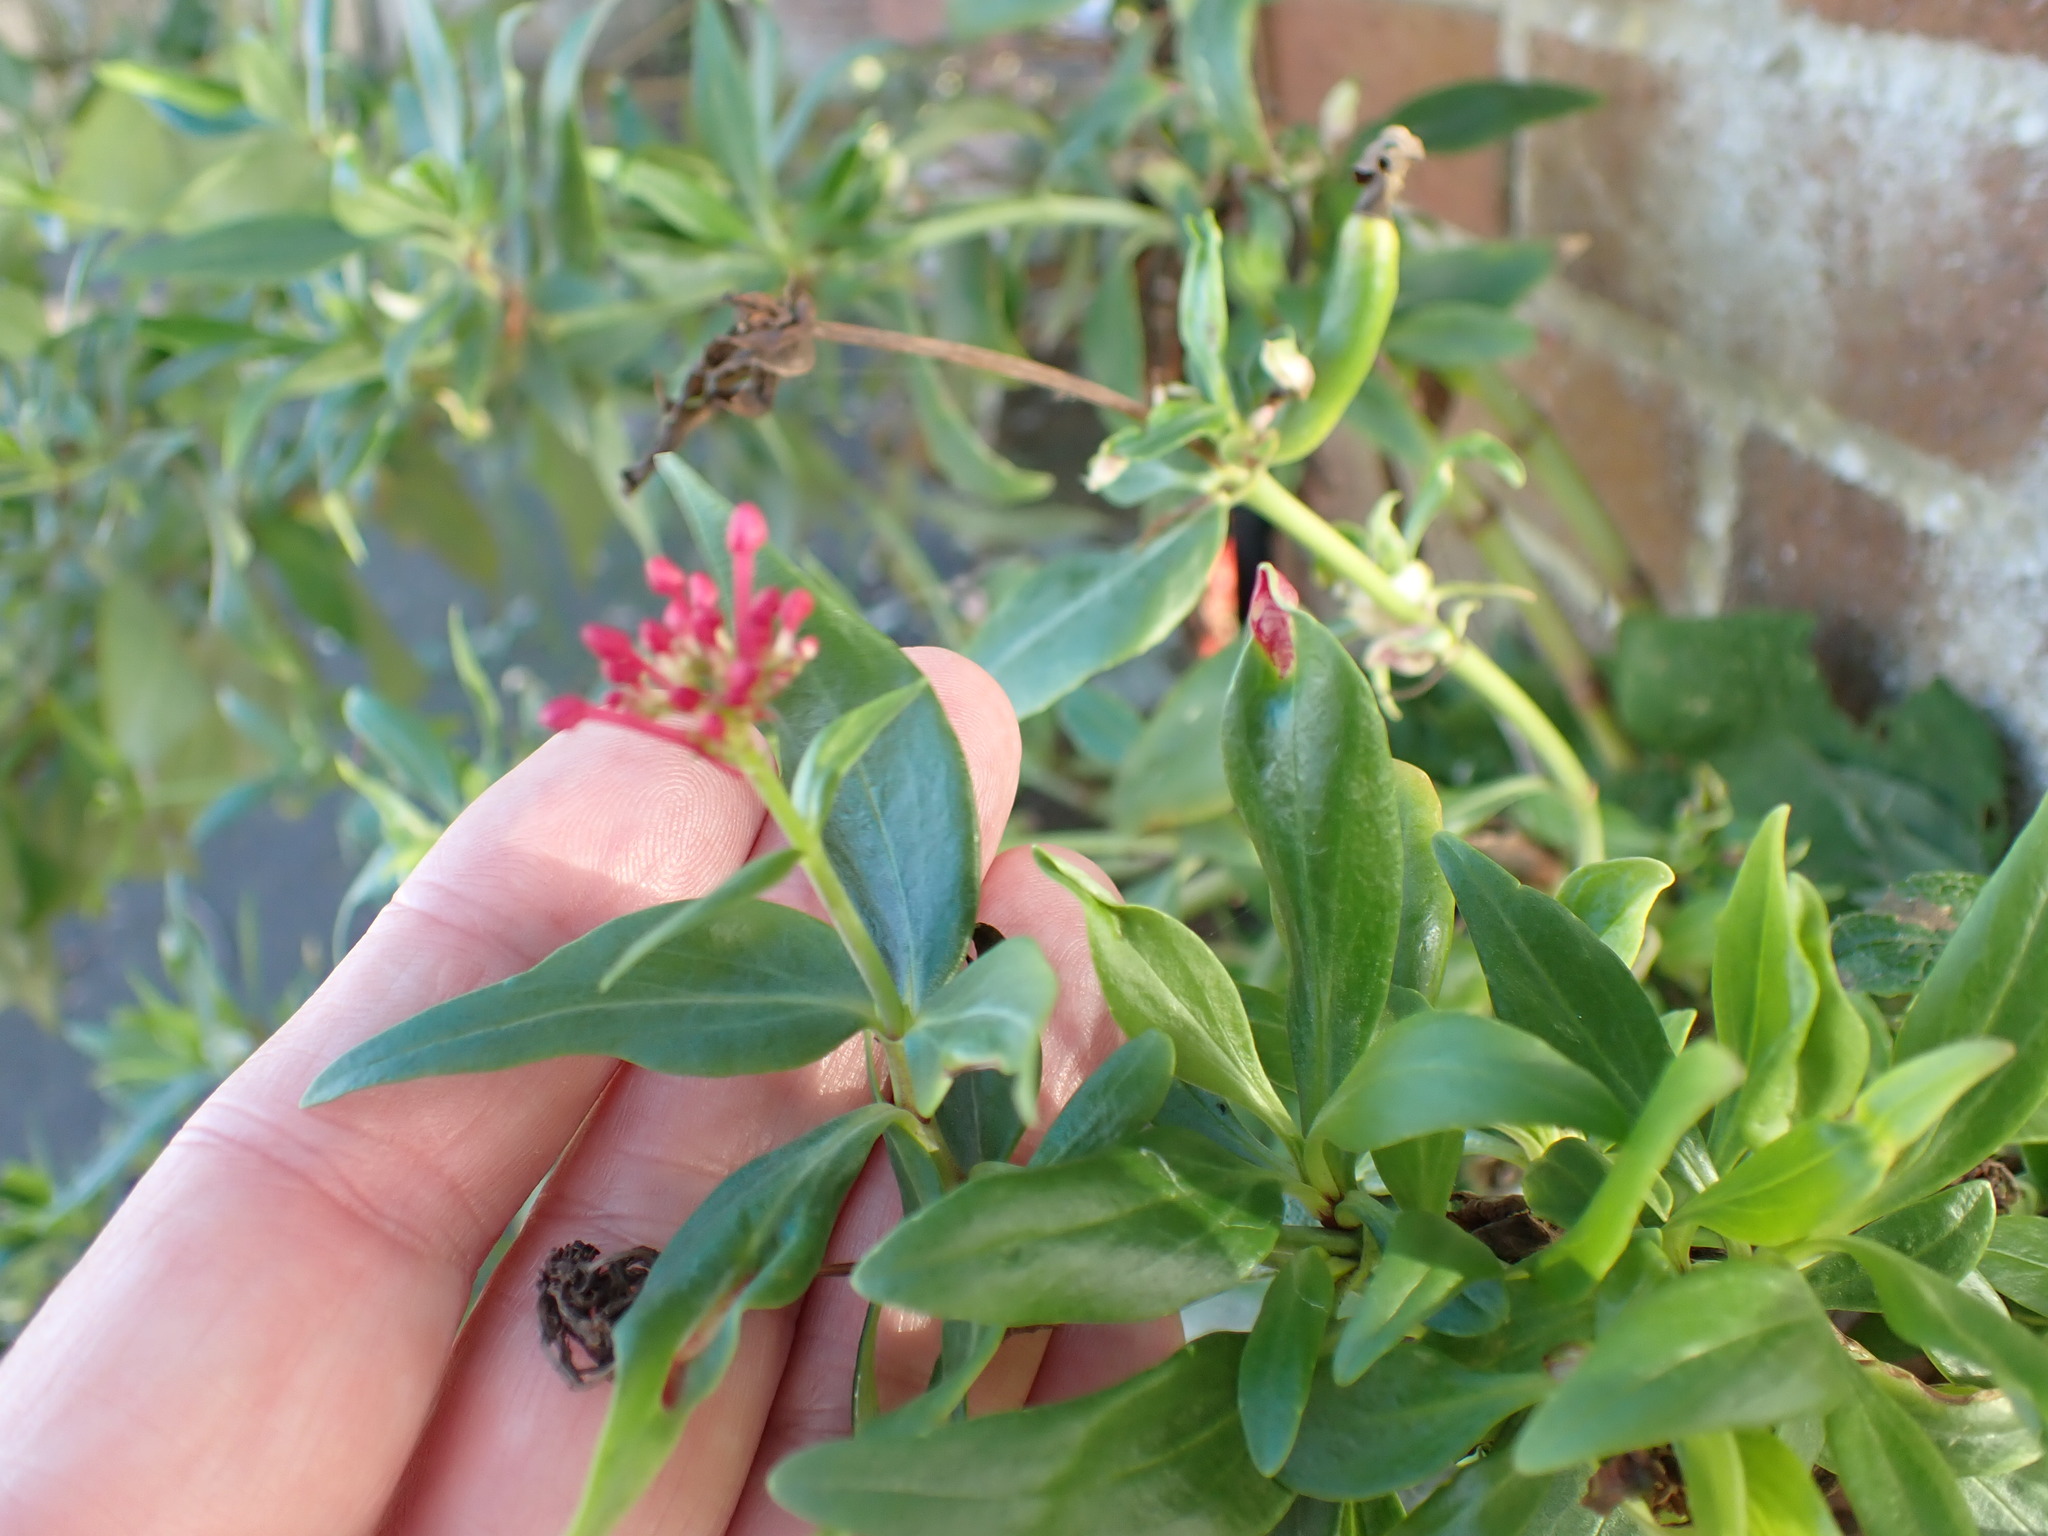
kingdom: Plantae
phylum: Tracheophyta
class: Magnoliopsida
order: Dipsacales
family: Caprifoliaceae
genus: Centranthus
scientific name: Centranthus ruber
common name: Red valerian
